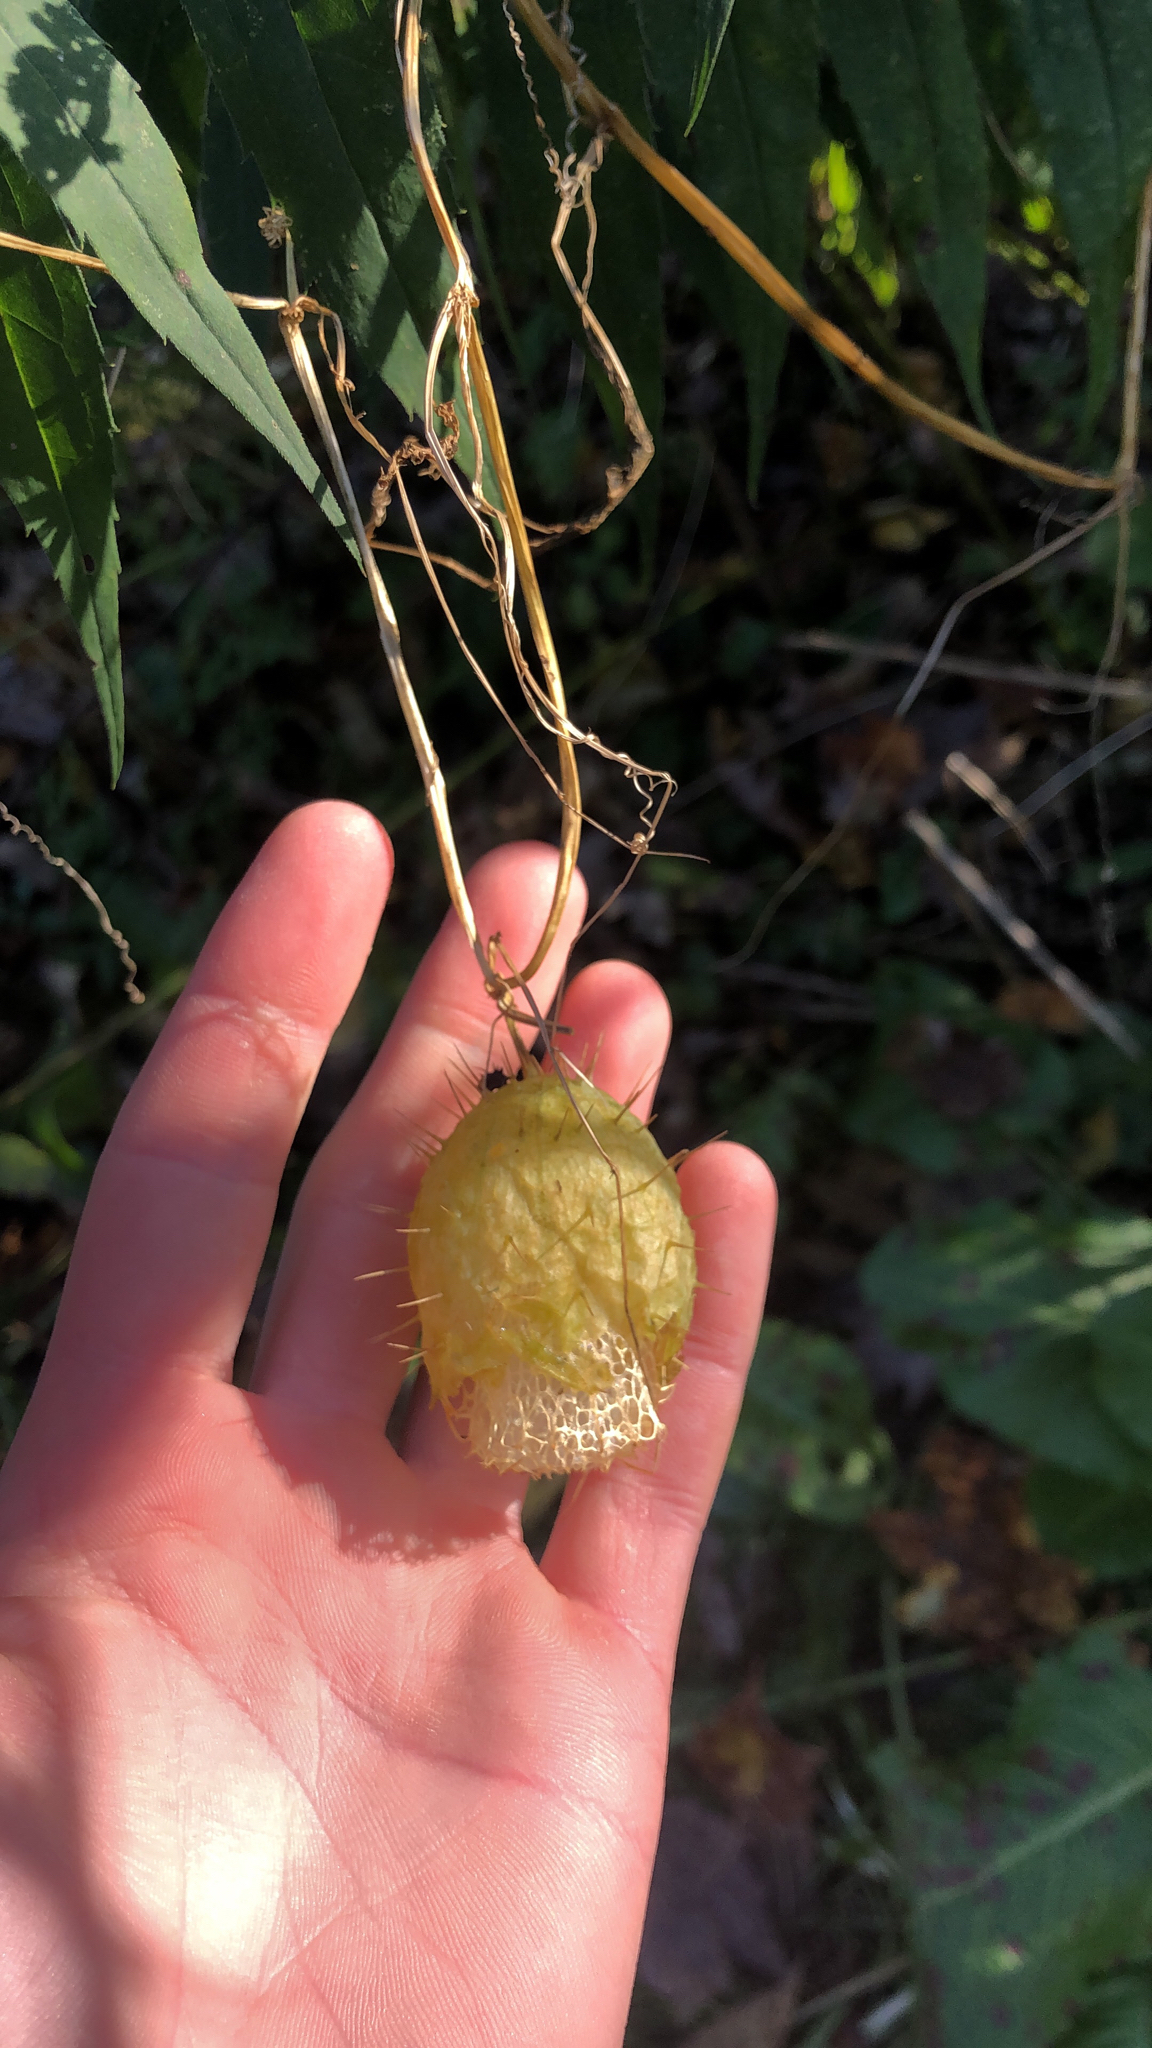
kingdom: Plantae
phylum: Tracheophyta
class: Magnoliopsida
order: Cucurbitales
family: Cucurbitaceae
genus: Echinocystis
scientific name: Echinocystis lobata
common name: Wild cucumber
